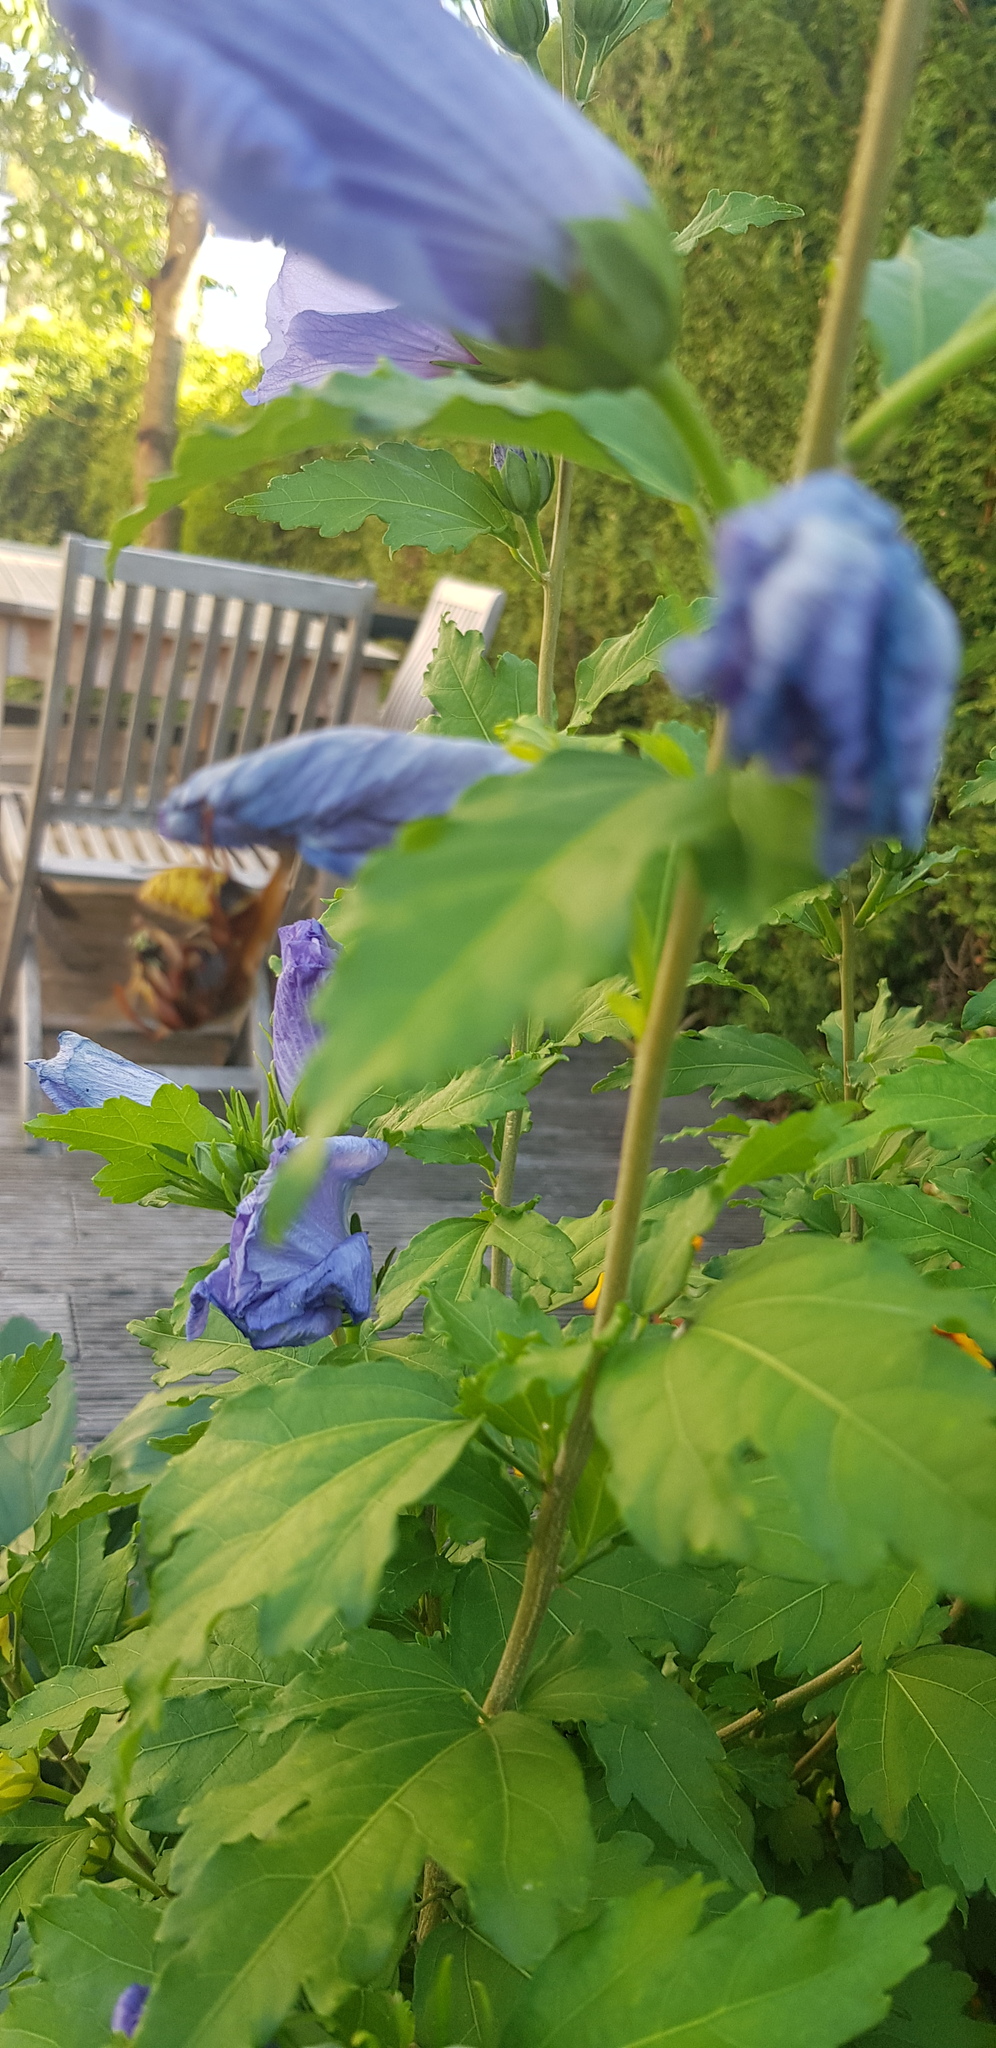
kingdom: Animalia
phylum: Arthropoda
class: Insecta
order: Hymenoptera
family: Vespidae
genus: Vespa
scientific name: Vespa crabro
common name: Hornet
